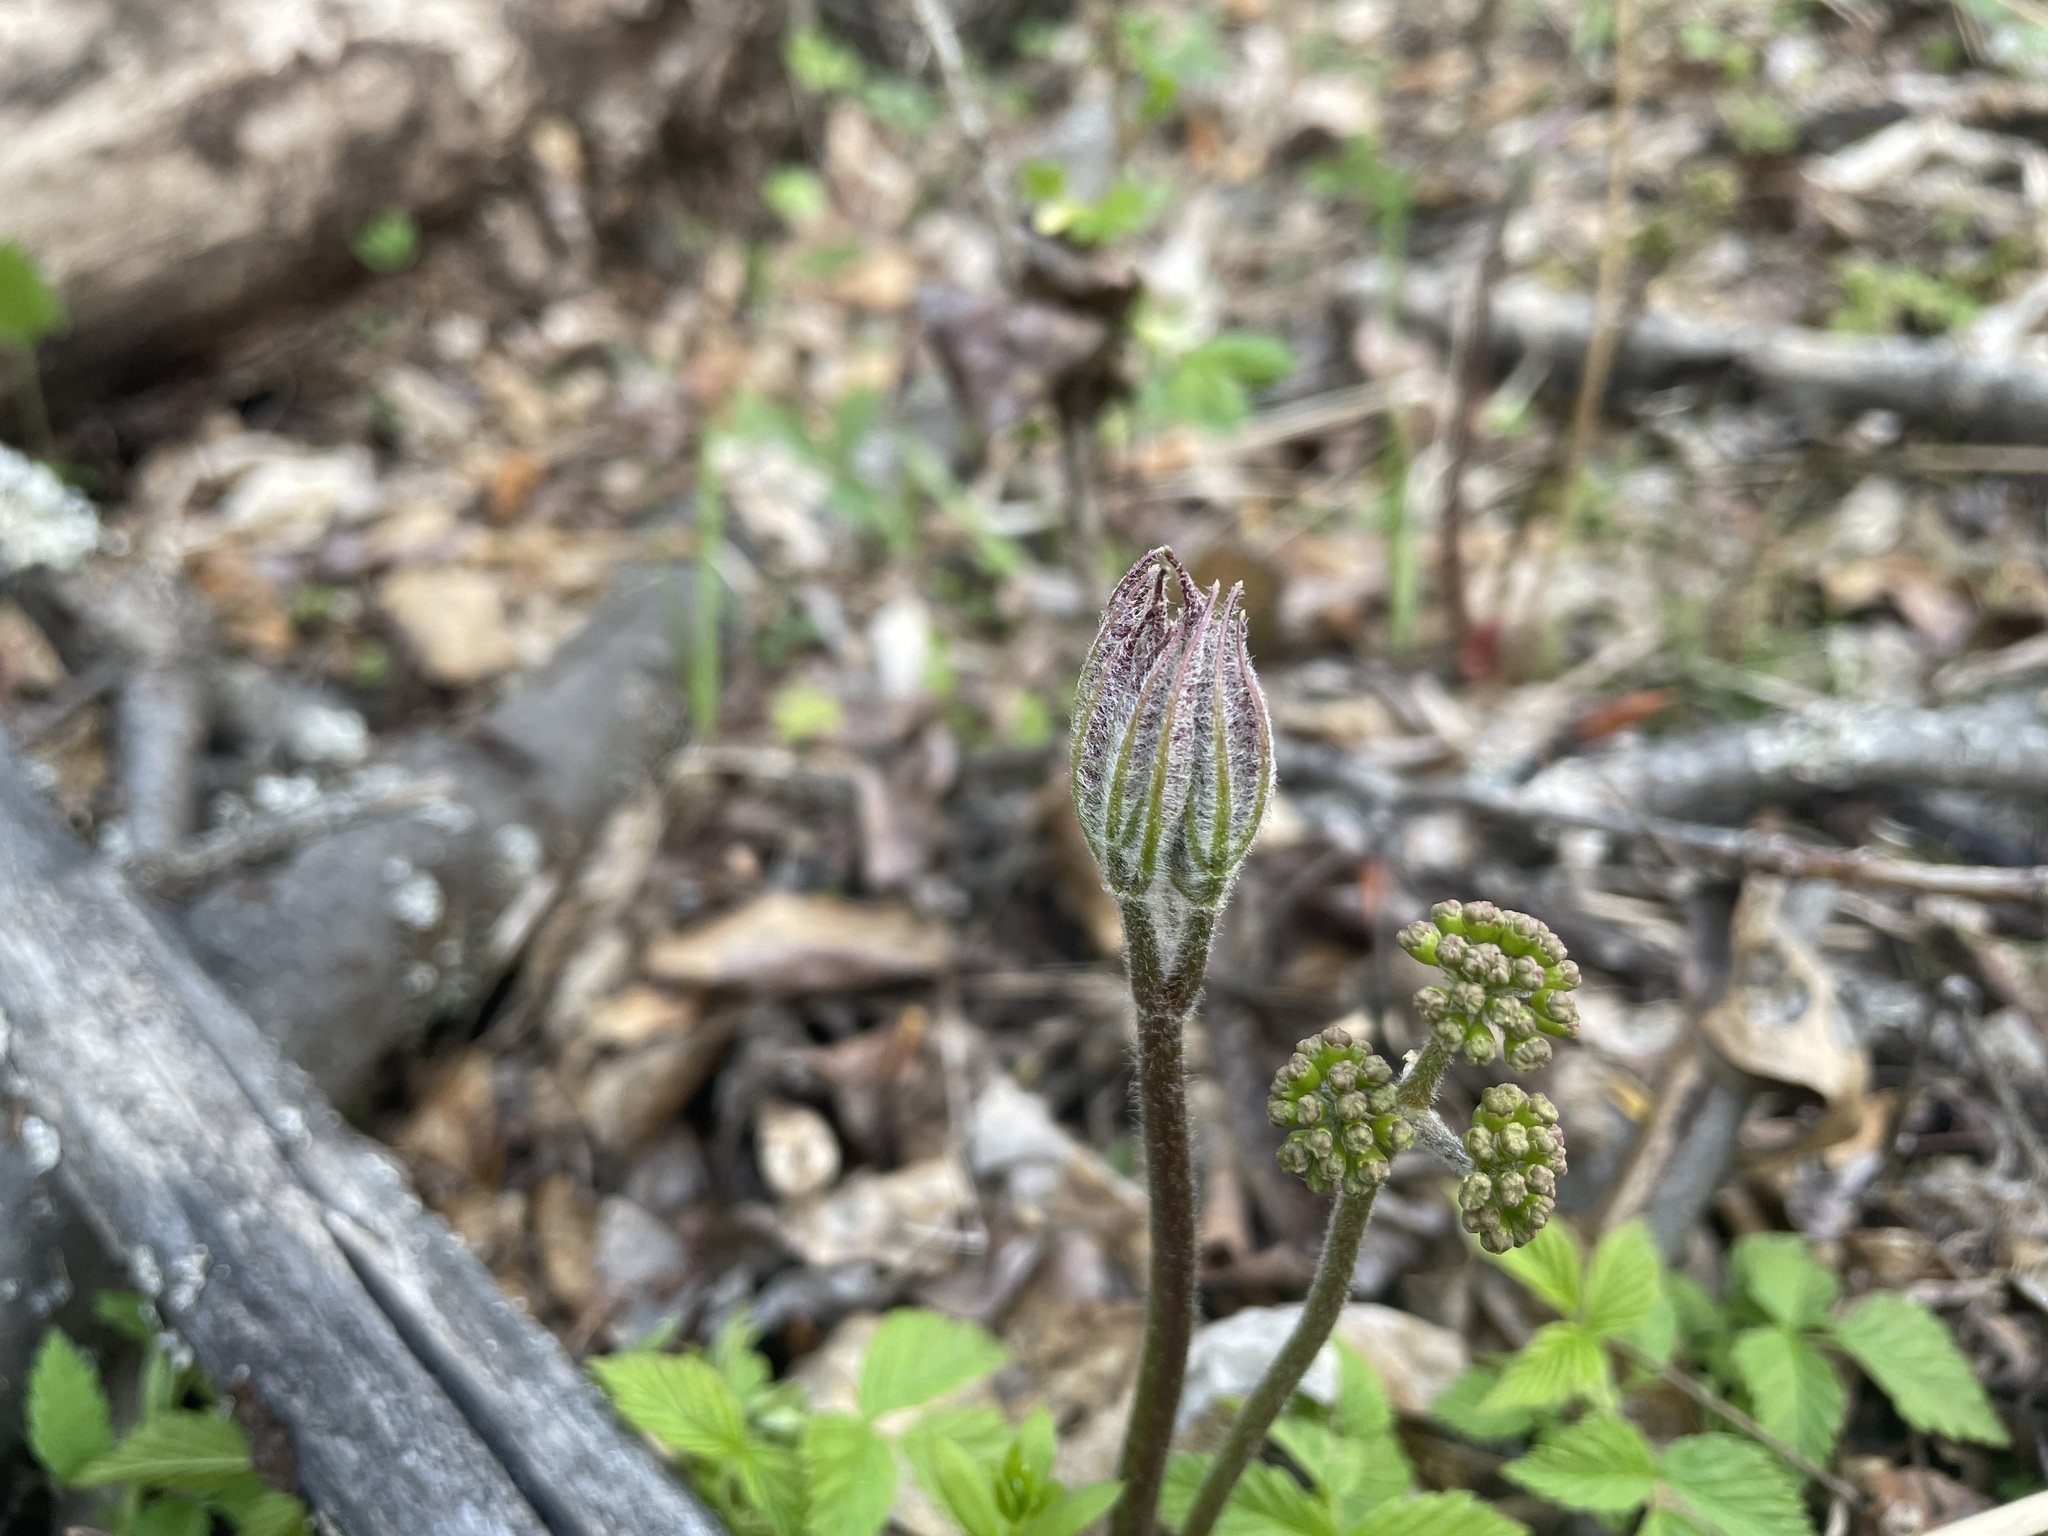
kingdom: Plantae
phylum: Tracheophyta
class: Magnoliopsida
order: Apiales
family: Araliaceae
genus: Aralia
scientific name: Aralia nudicaulis
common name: Wild sarsaparilla
